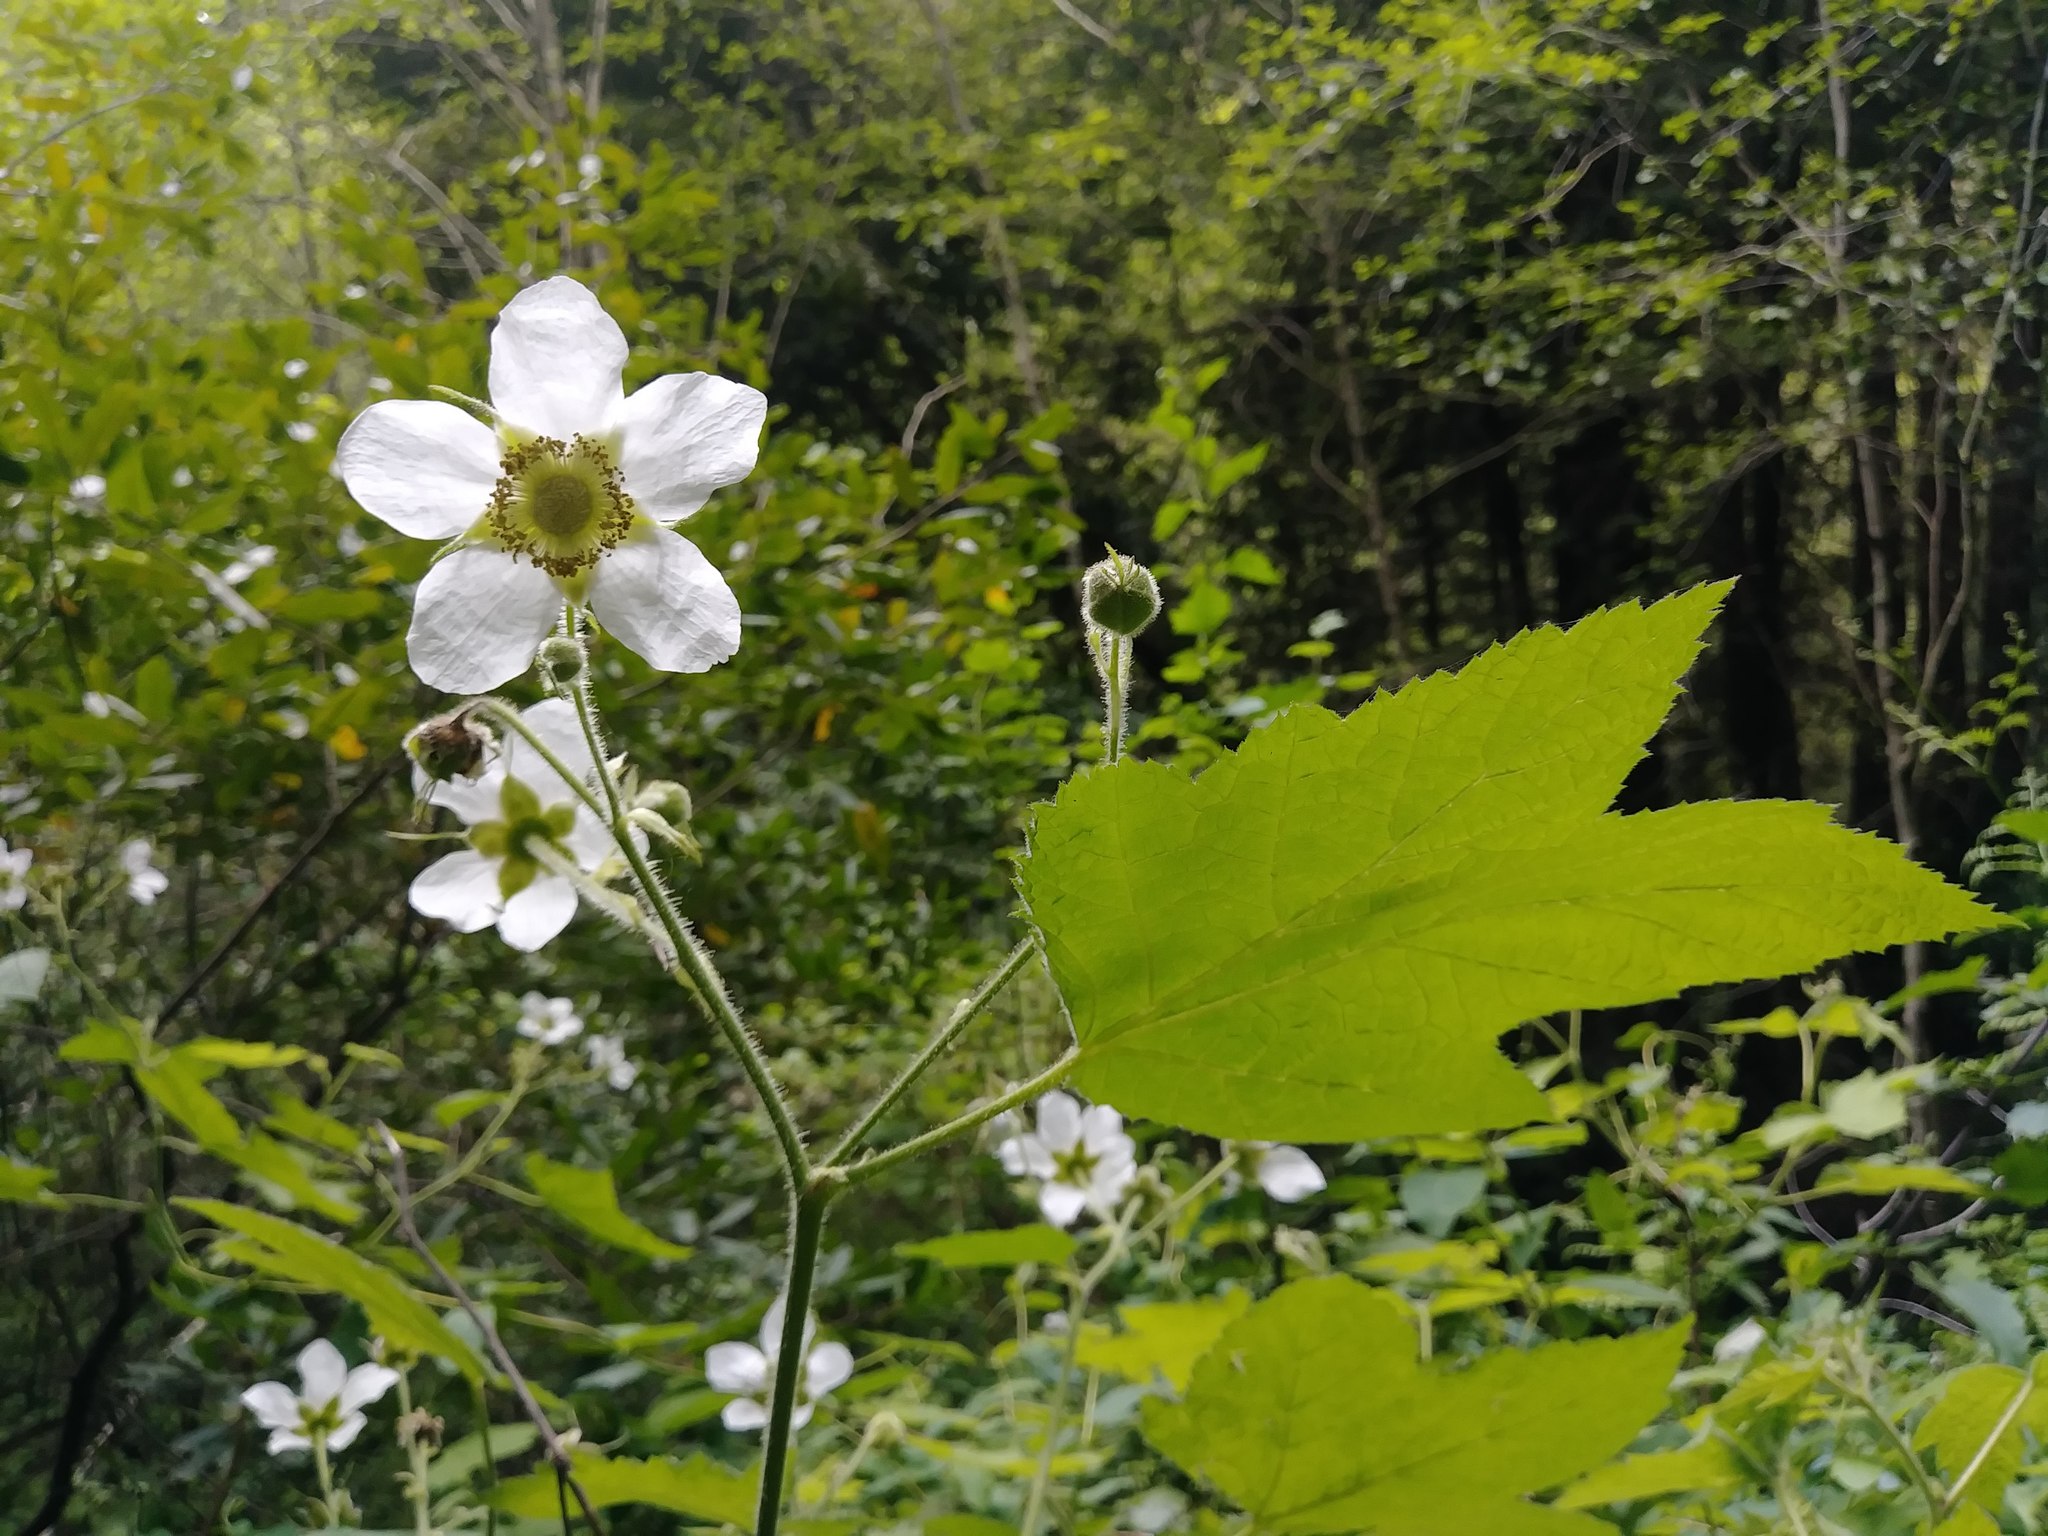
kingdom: Plantae
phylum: Tracheophyta
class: Magnoliopsida
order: Rosales
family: Rosaceae
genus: Rubus
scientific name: Rubus parviflorus
